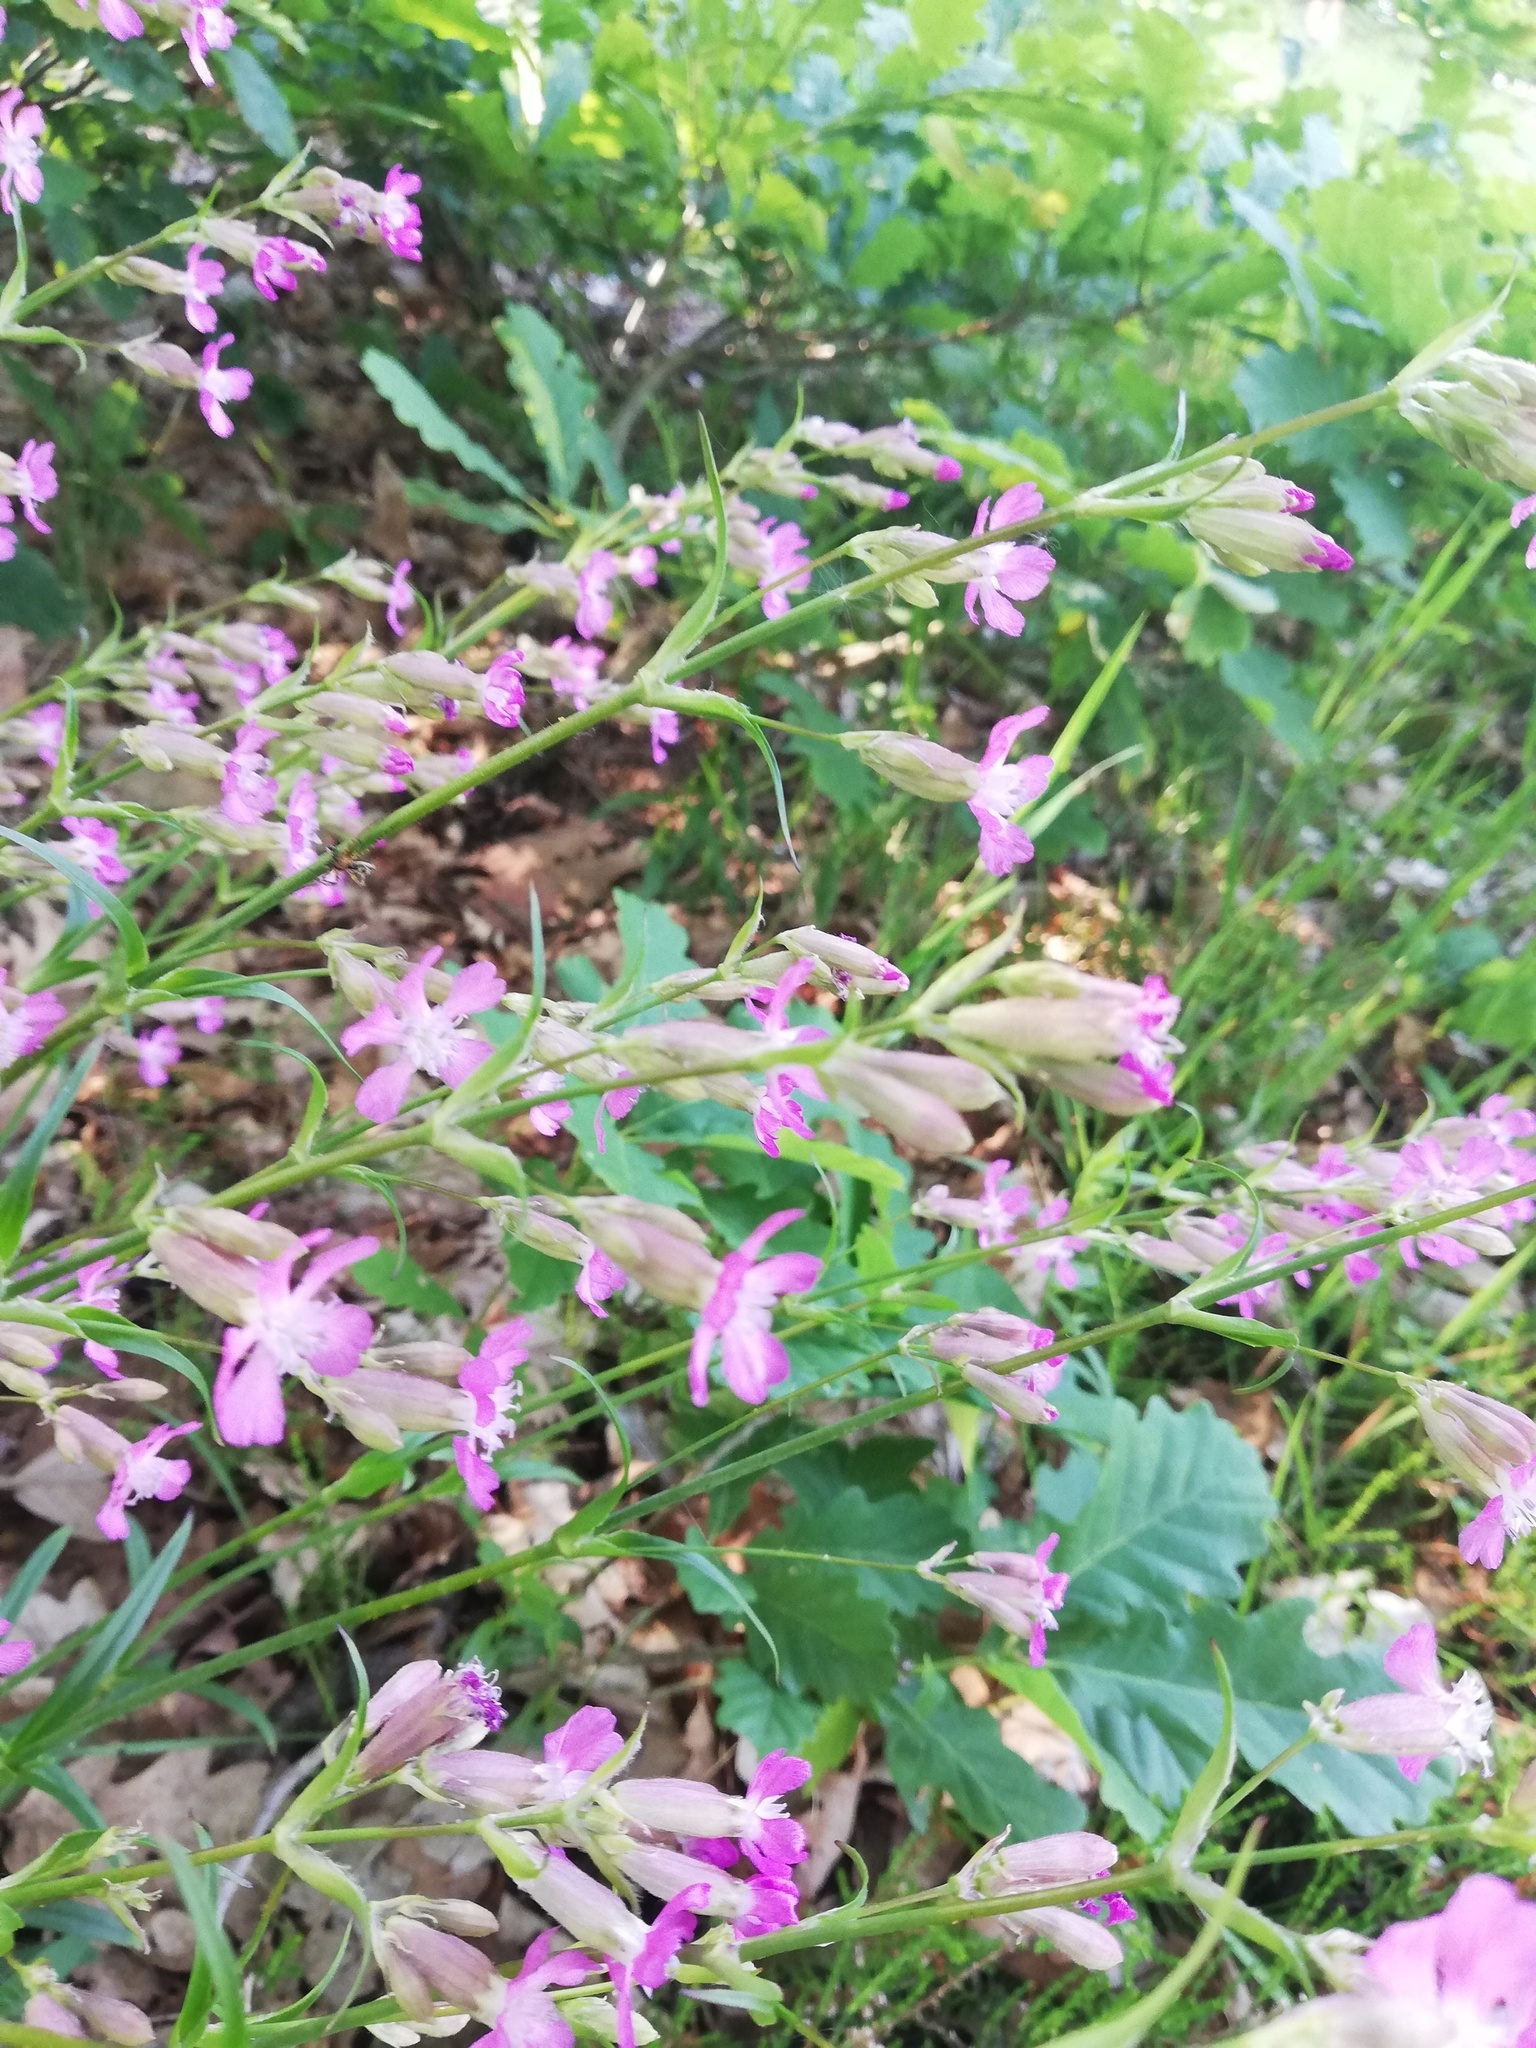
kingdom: Plantae
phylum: Tracheophyta
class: Magnoliopsida
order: Caryophyllales
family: Caryophyllaceae
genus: Viscaria
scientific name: Viscaria vulgaris
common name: Clammy campion
